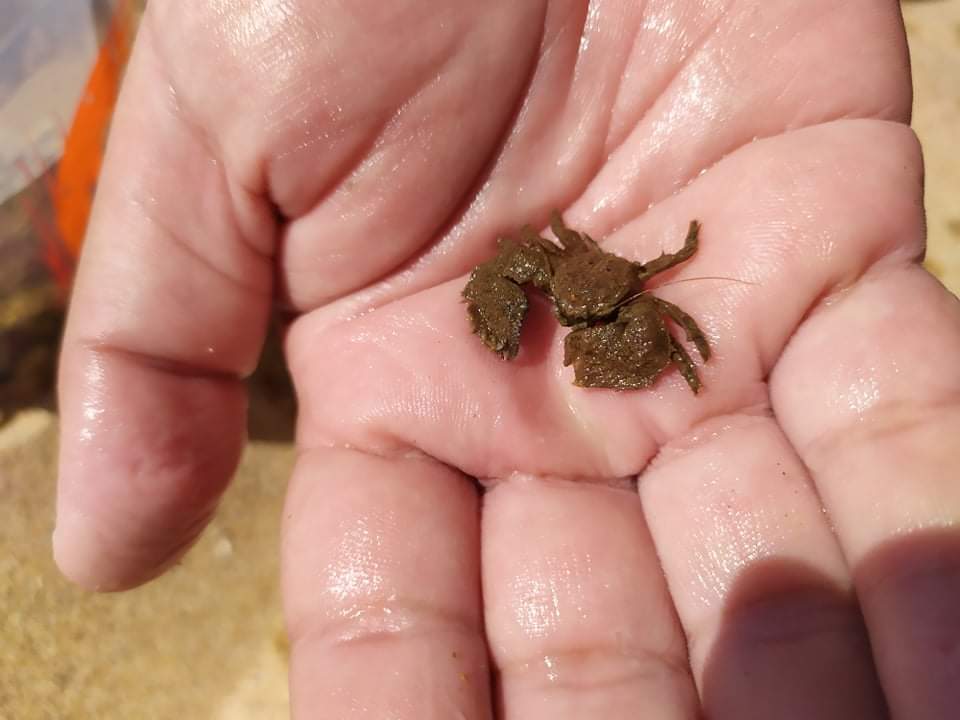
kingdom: Animalia
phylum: Arthropoda
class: Malacostraca
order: Decapoda
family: Porcellanidae
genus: Porcellana
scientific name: Porcellana platycheles
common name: Porcelain crab
